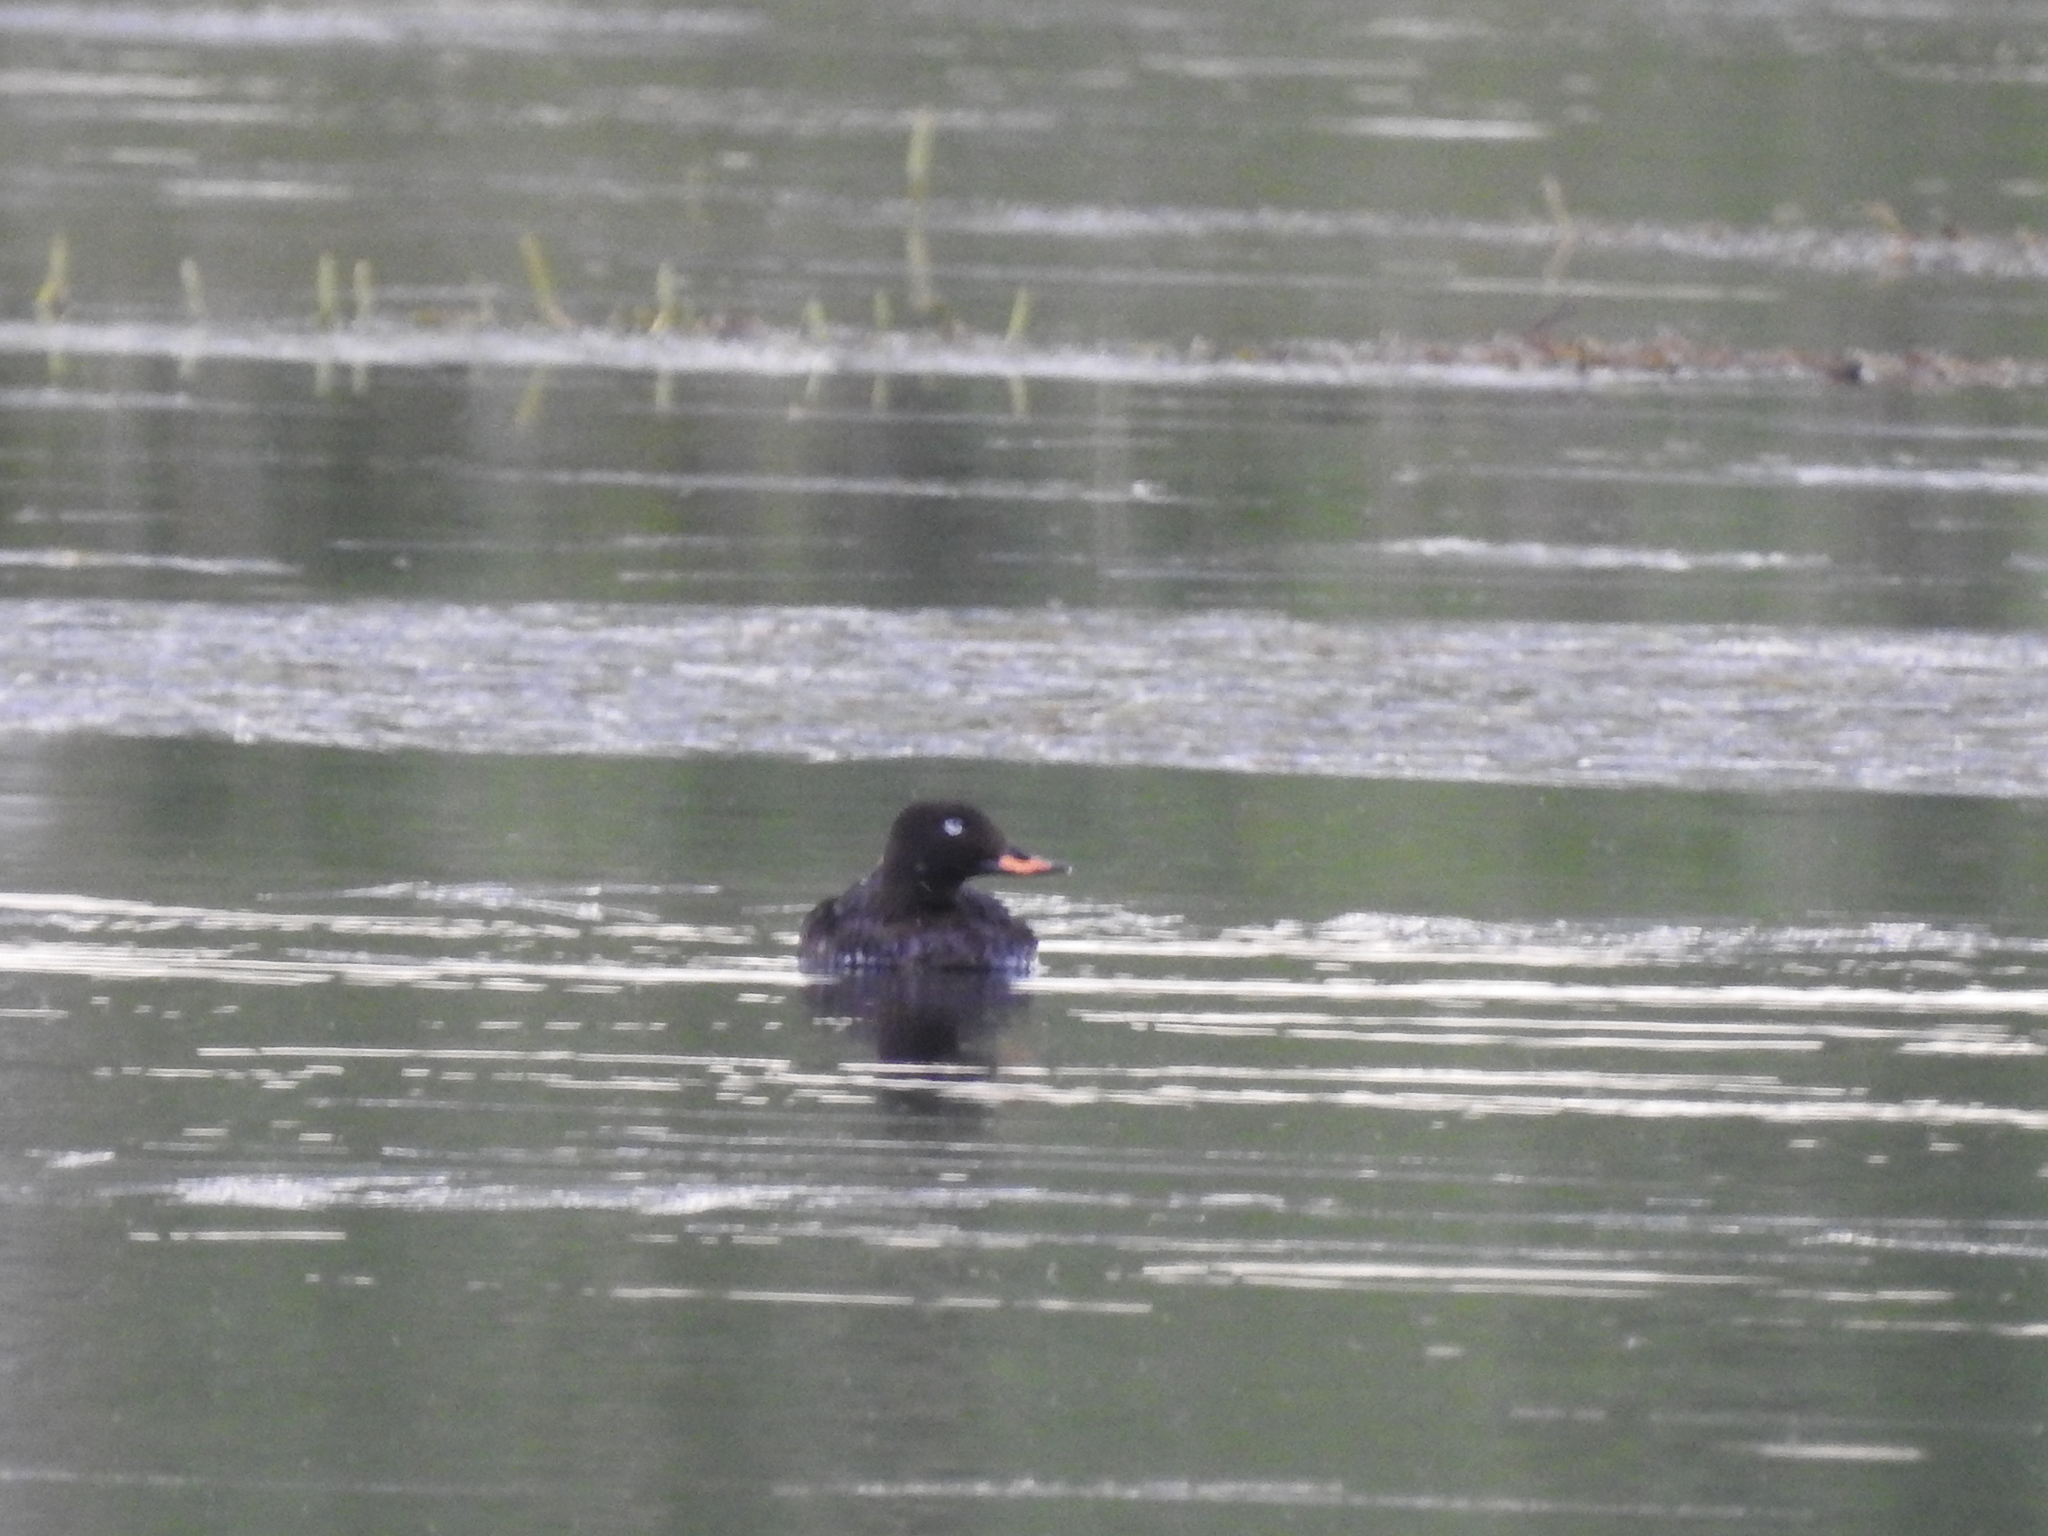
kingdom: Animalia
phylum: Chordata
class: Aves
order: Anseriformes
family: Anatidae
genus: Melanitta
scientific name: Melanitta fusca
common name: Velvet scoter
